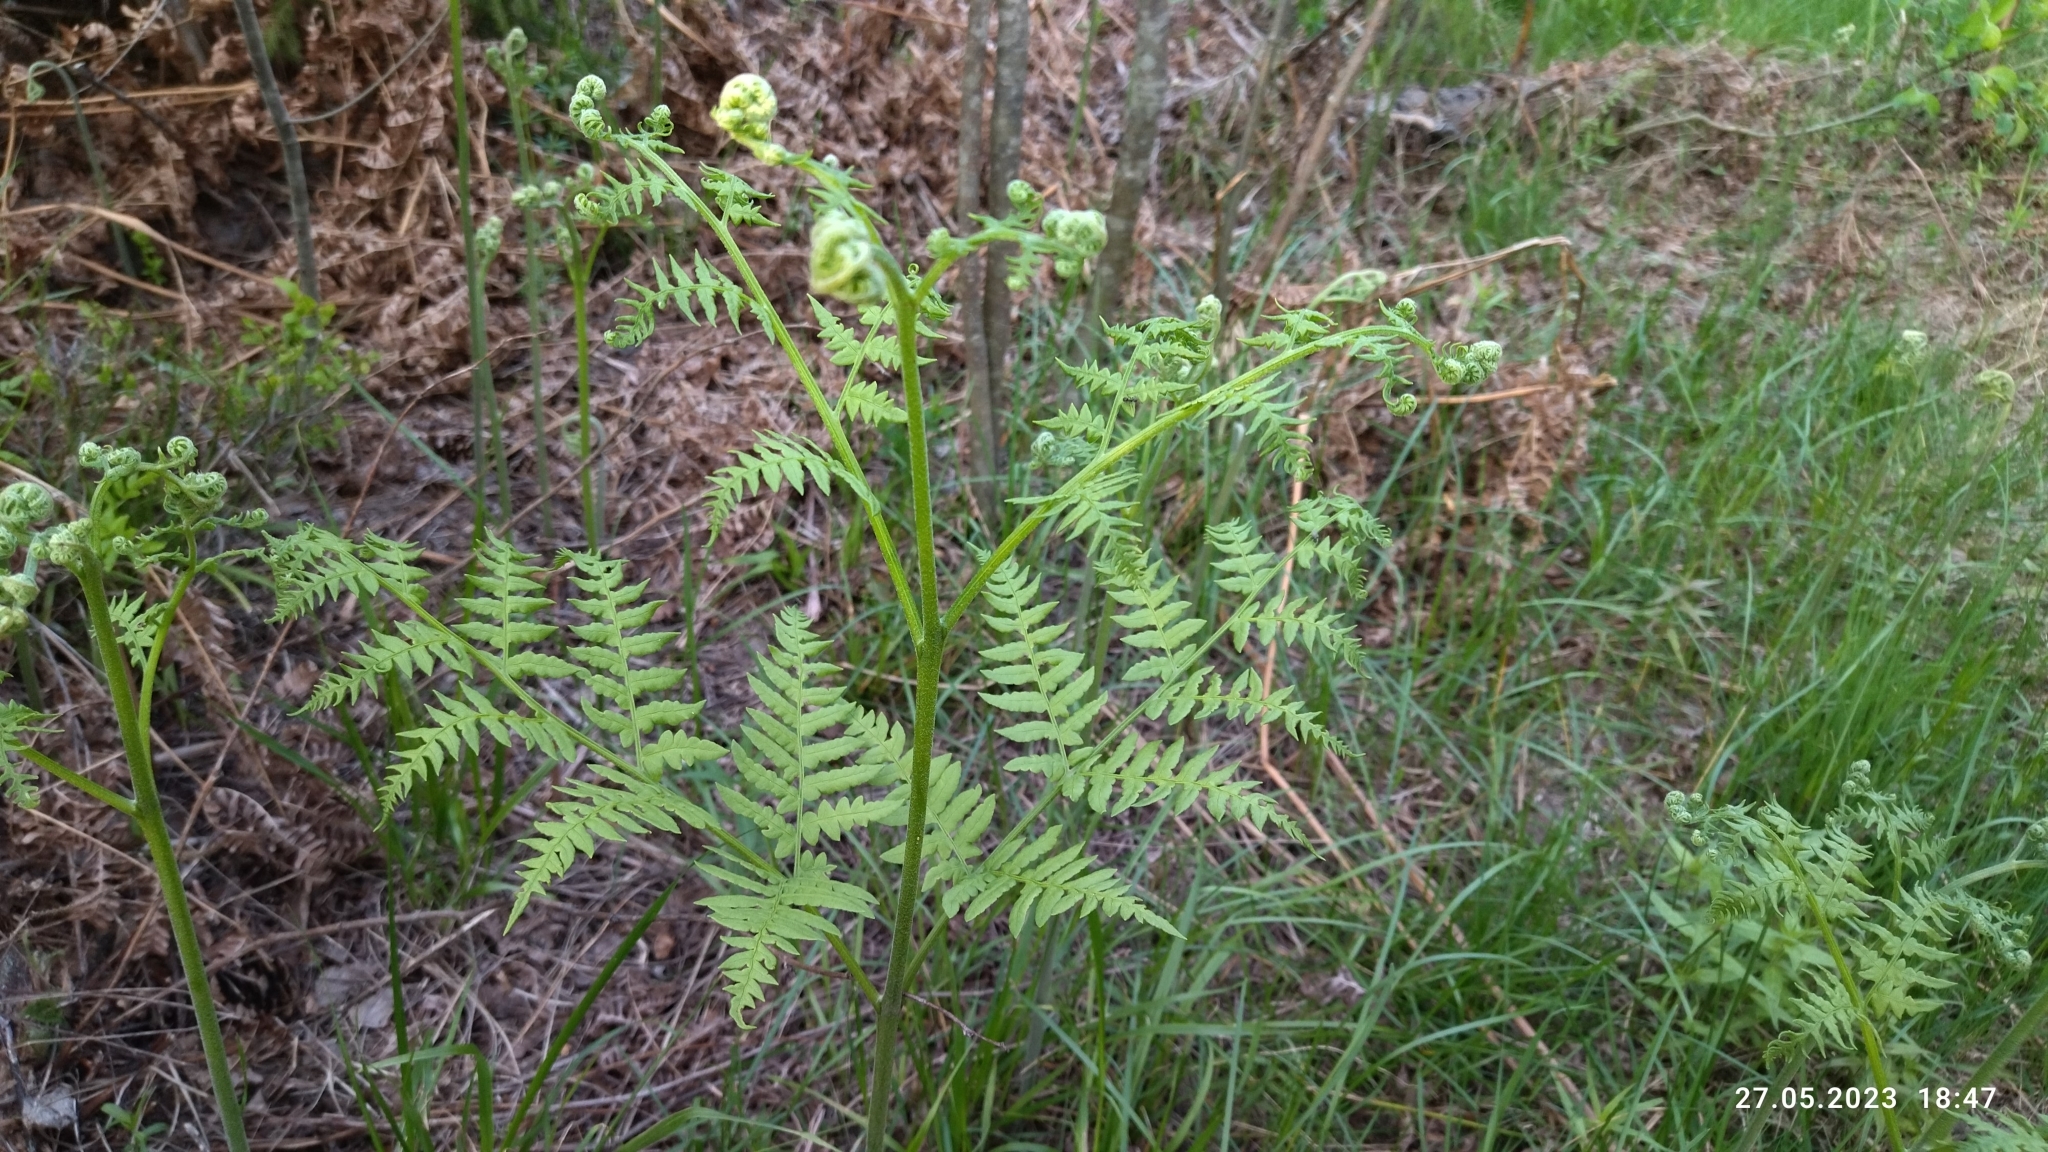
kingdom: Plantae
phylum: Tracheophyta
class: Polypodiopsida
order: Polypodiales
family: Dennstaedtiaceae
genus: Pteridium
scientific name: Pteridium aquilinum
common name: Bracken
